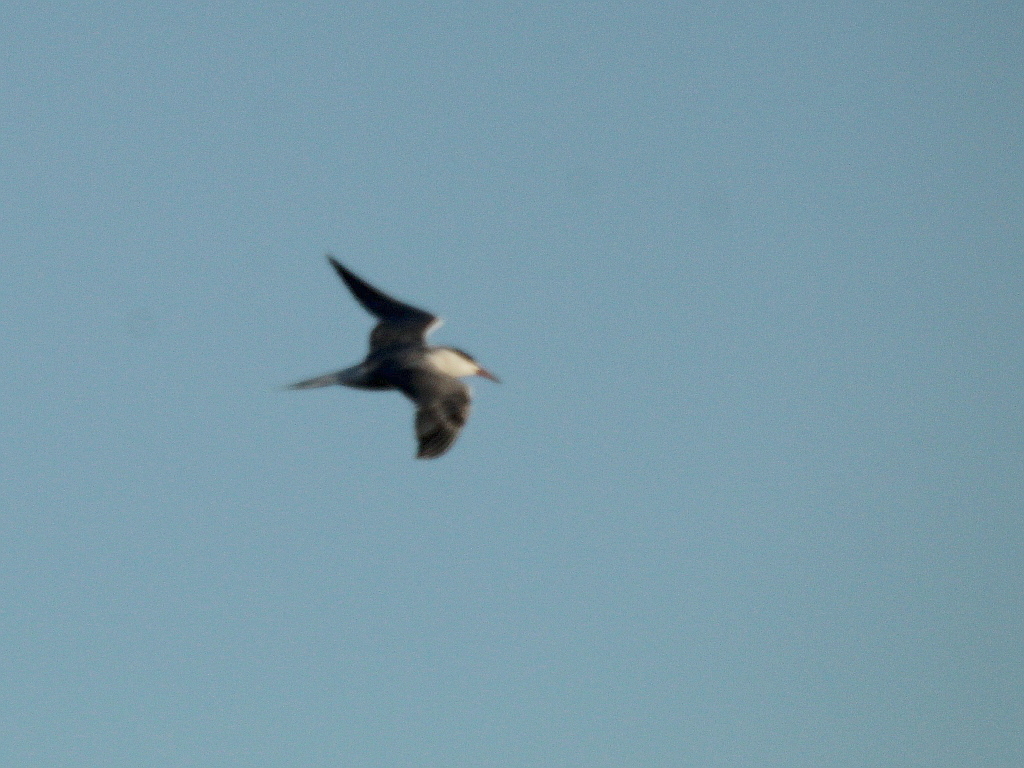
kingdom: Animalia
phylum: Chordata
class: Aves
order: Charadriiformes
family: Laridae
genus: Sterna
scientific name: Sterna hirundo
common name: Common tern
